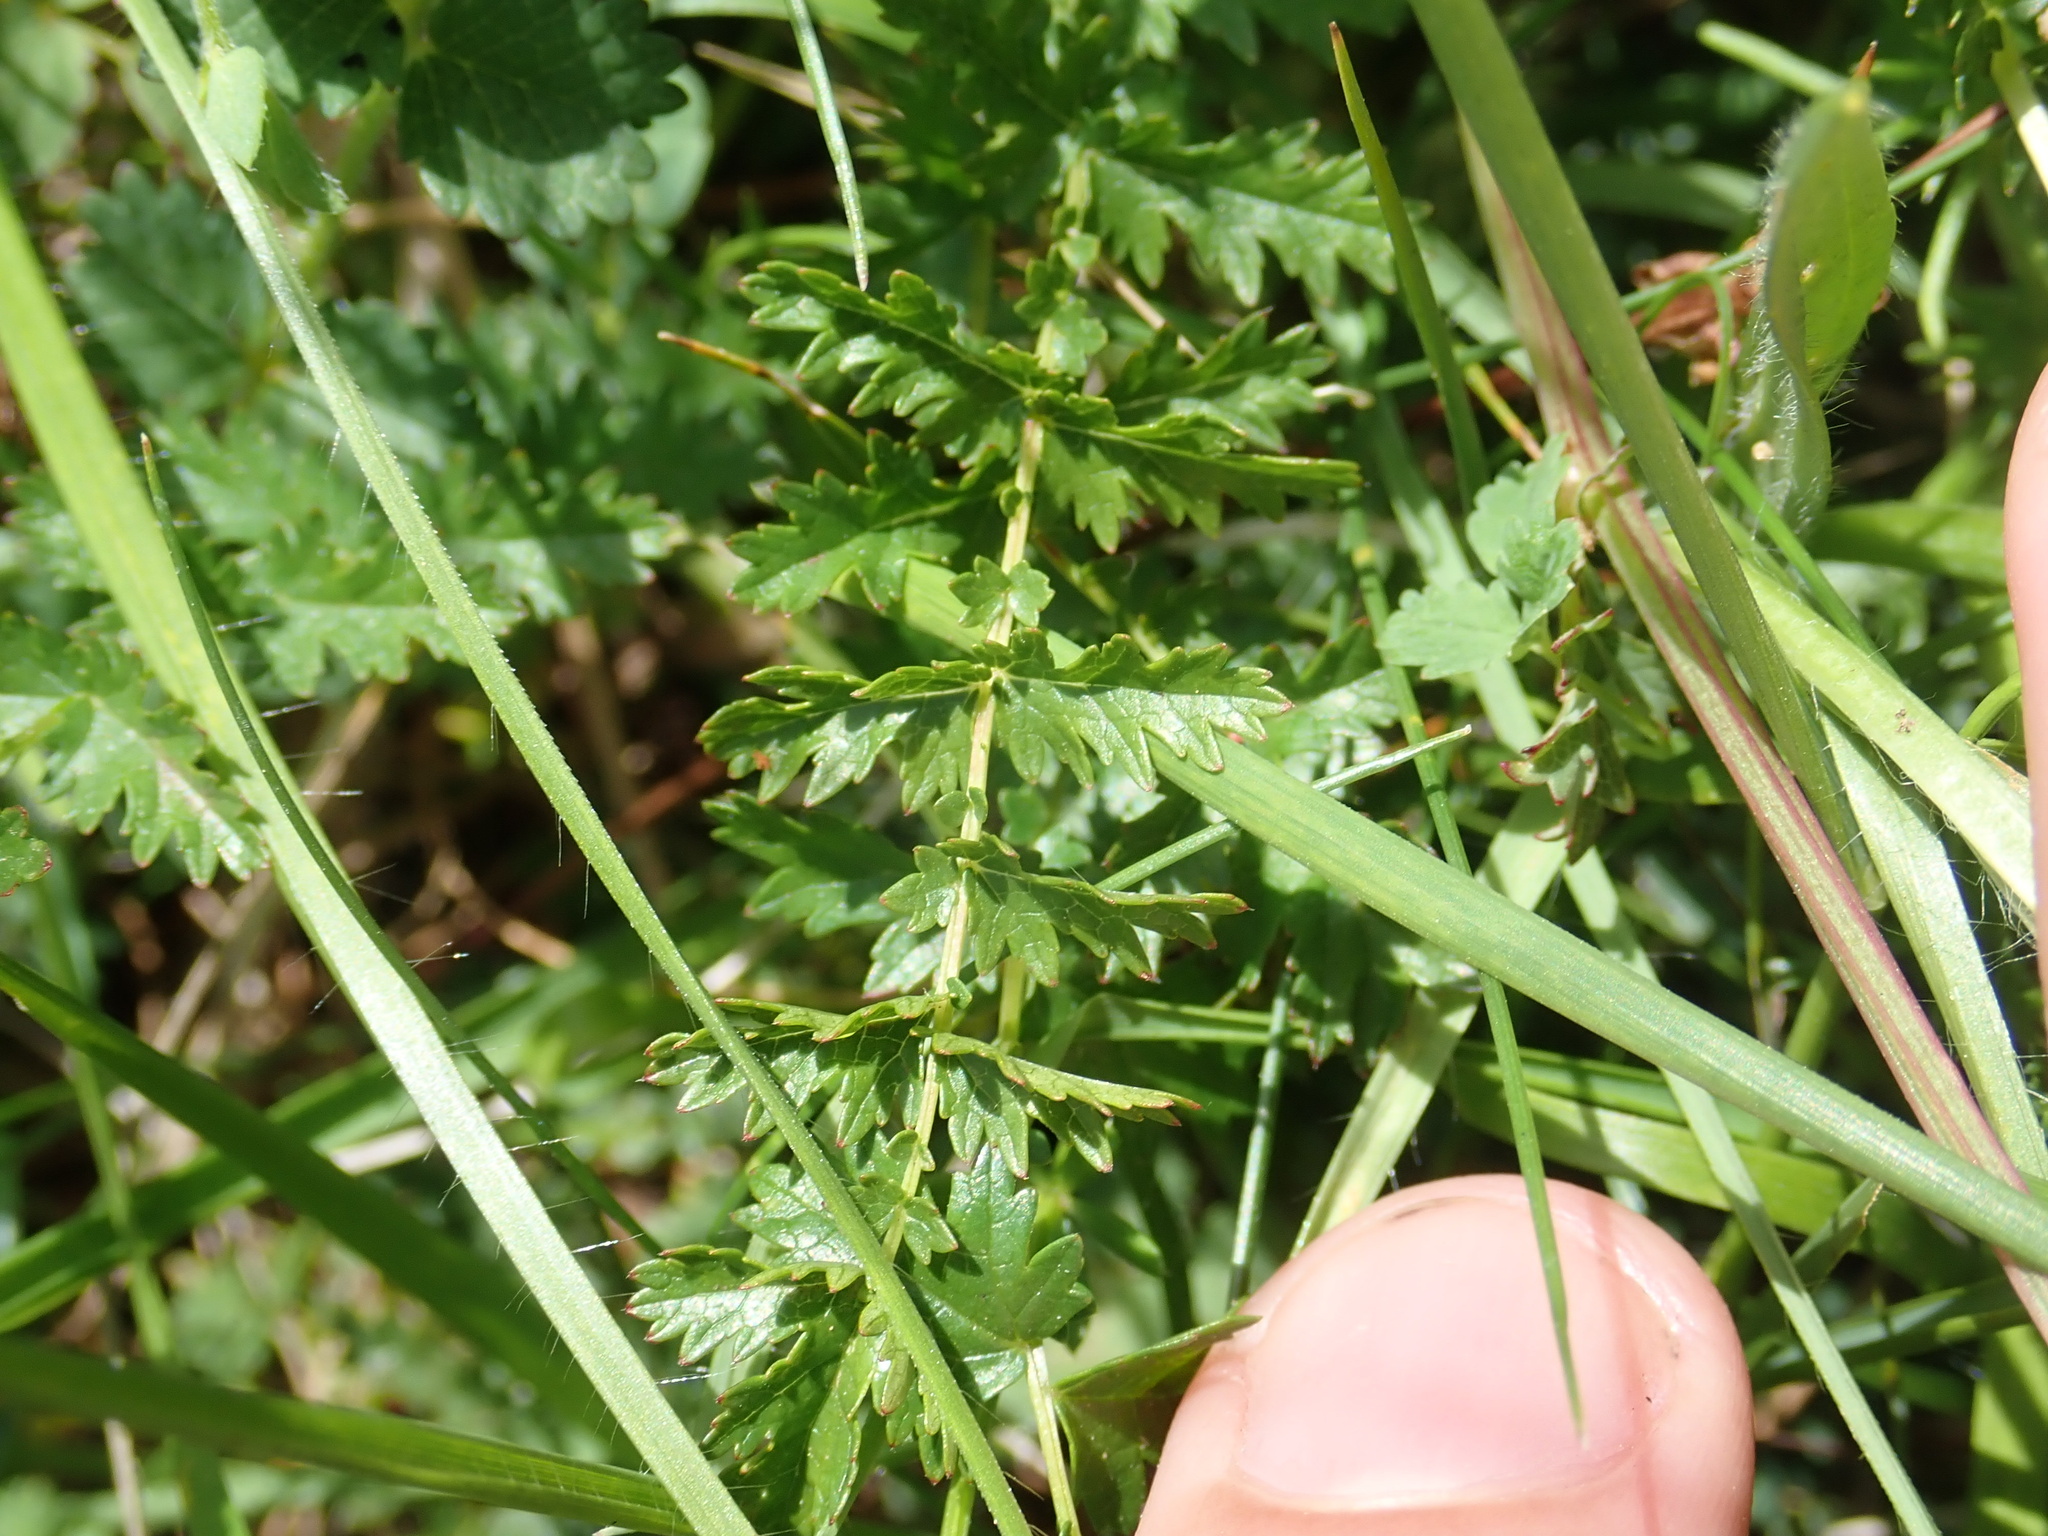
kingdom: Plantae
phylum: Tracheophyta
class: Magnoliopsida
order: Rosales
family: Rosaceae
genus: Filipendula
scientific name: Filipendula vulgaris
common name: Dropwort
